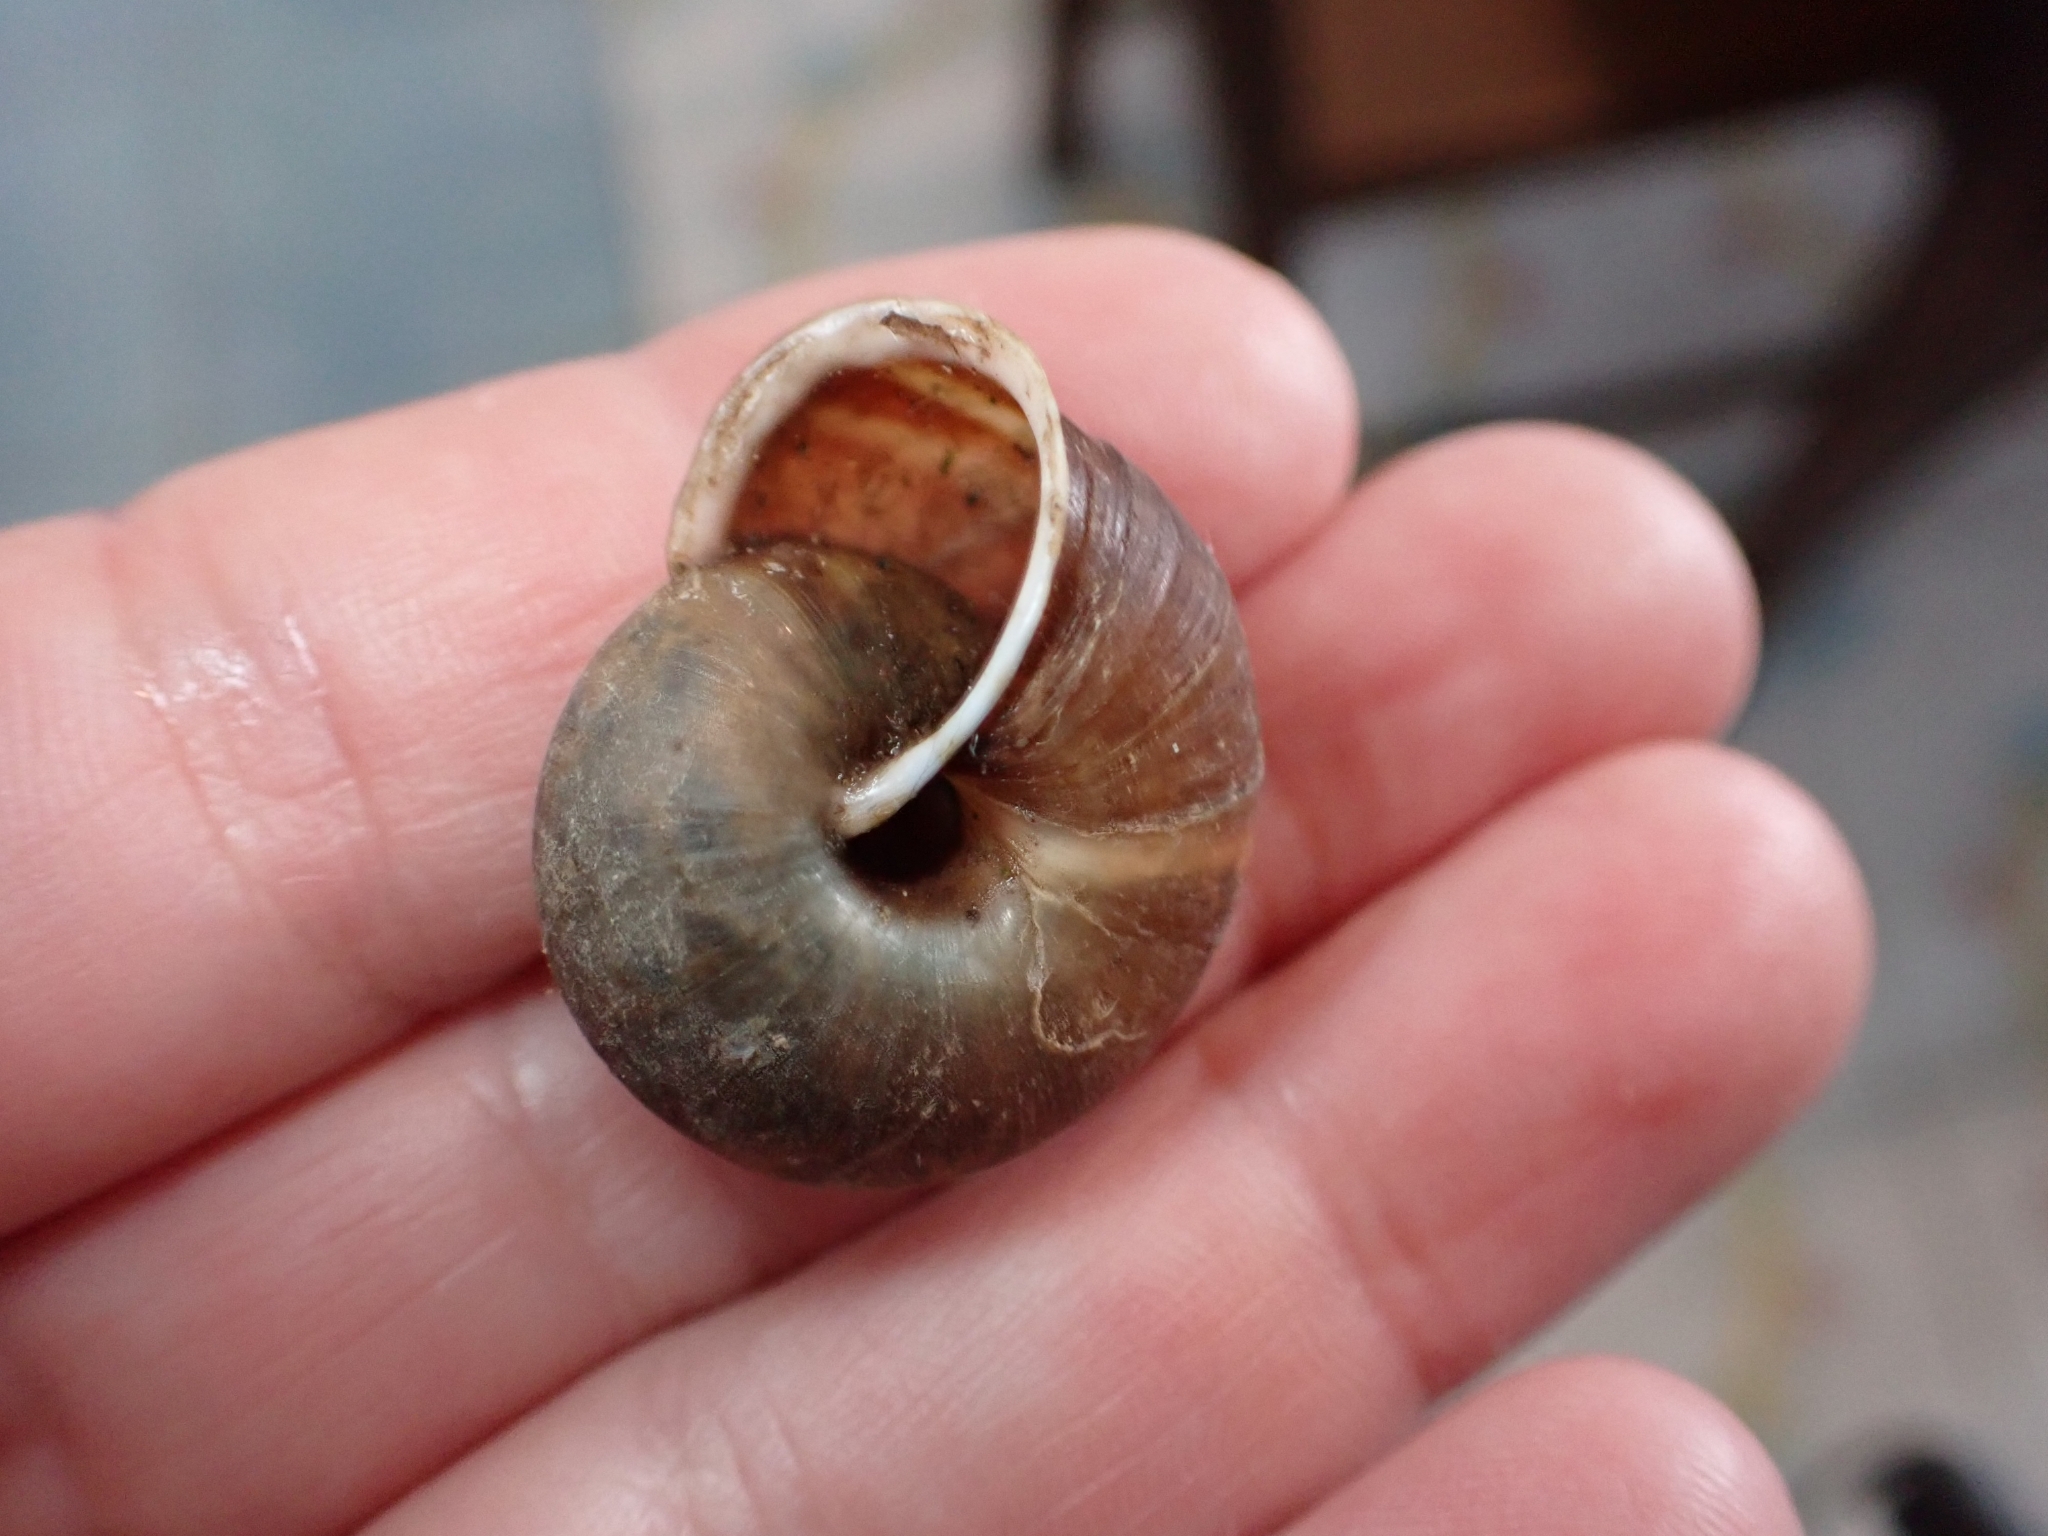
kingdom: Animalia
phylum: Mollusca
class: Gastropoda
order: Stylommatophora
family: Helicidae
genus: Campylaea
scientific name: Campylaea planospira
